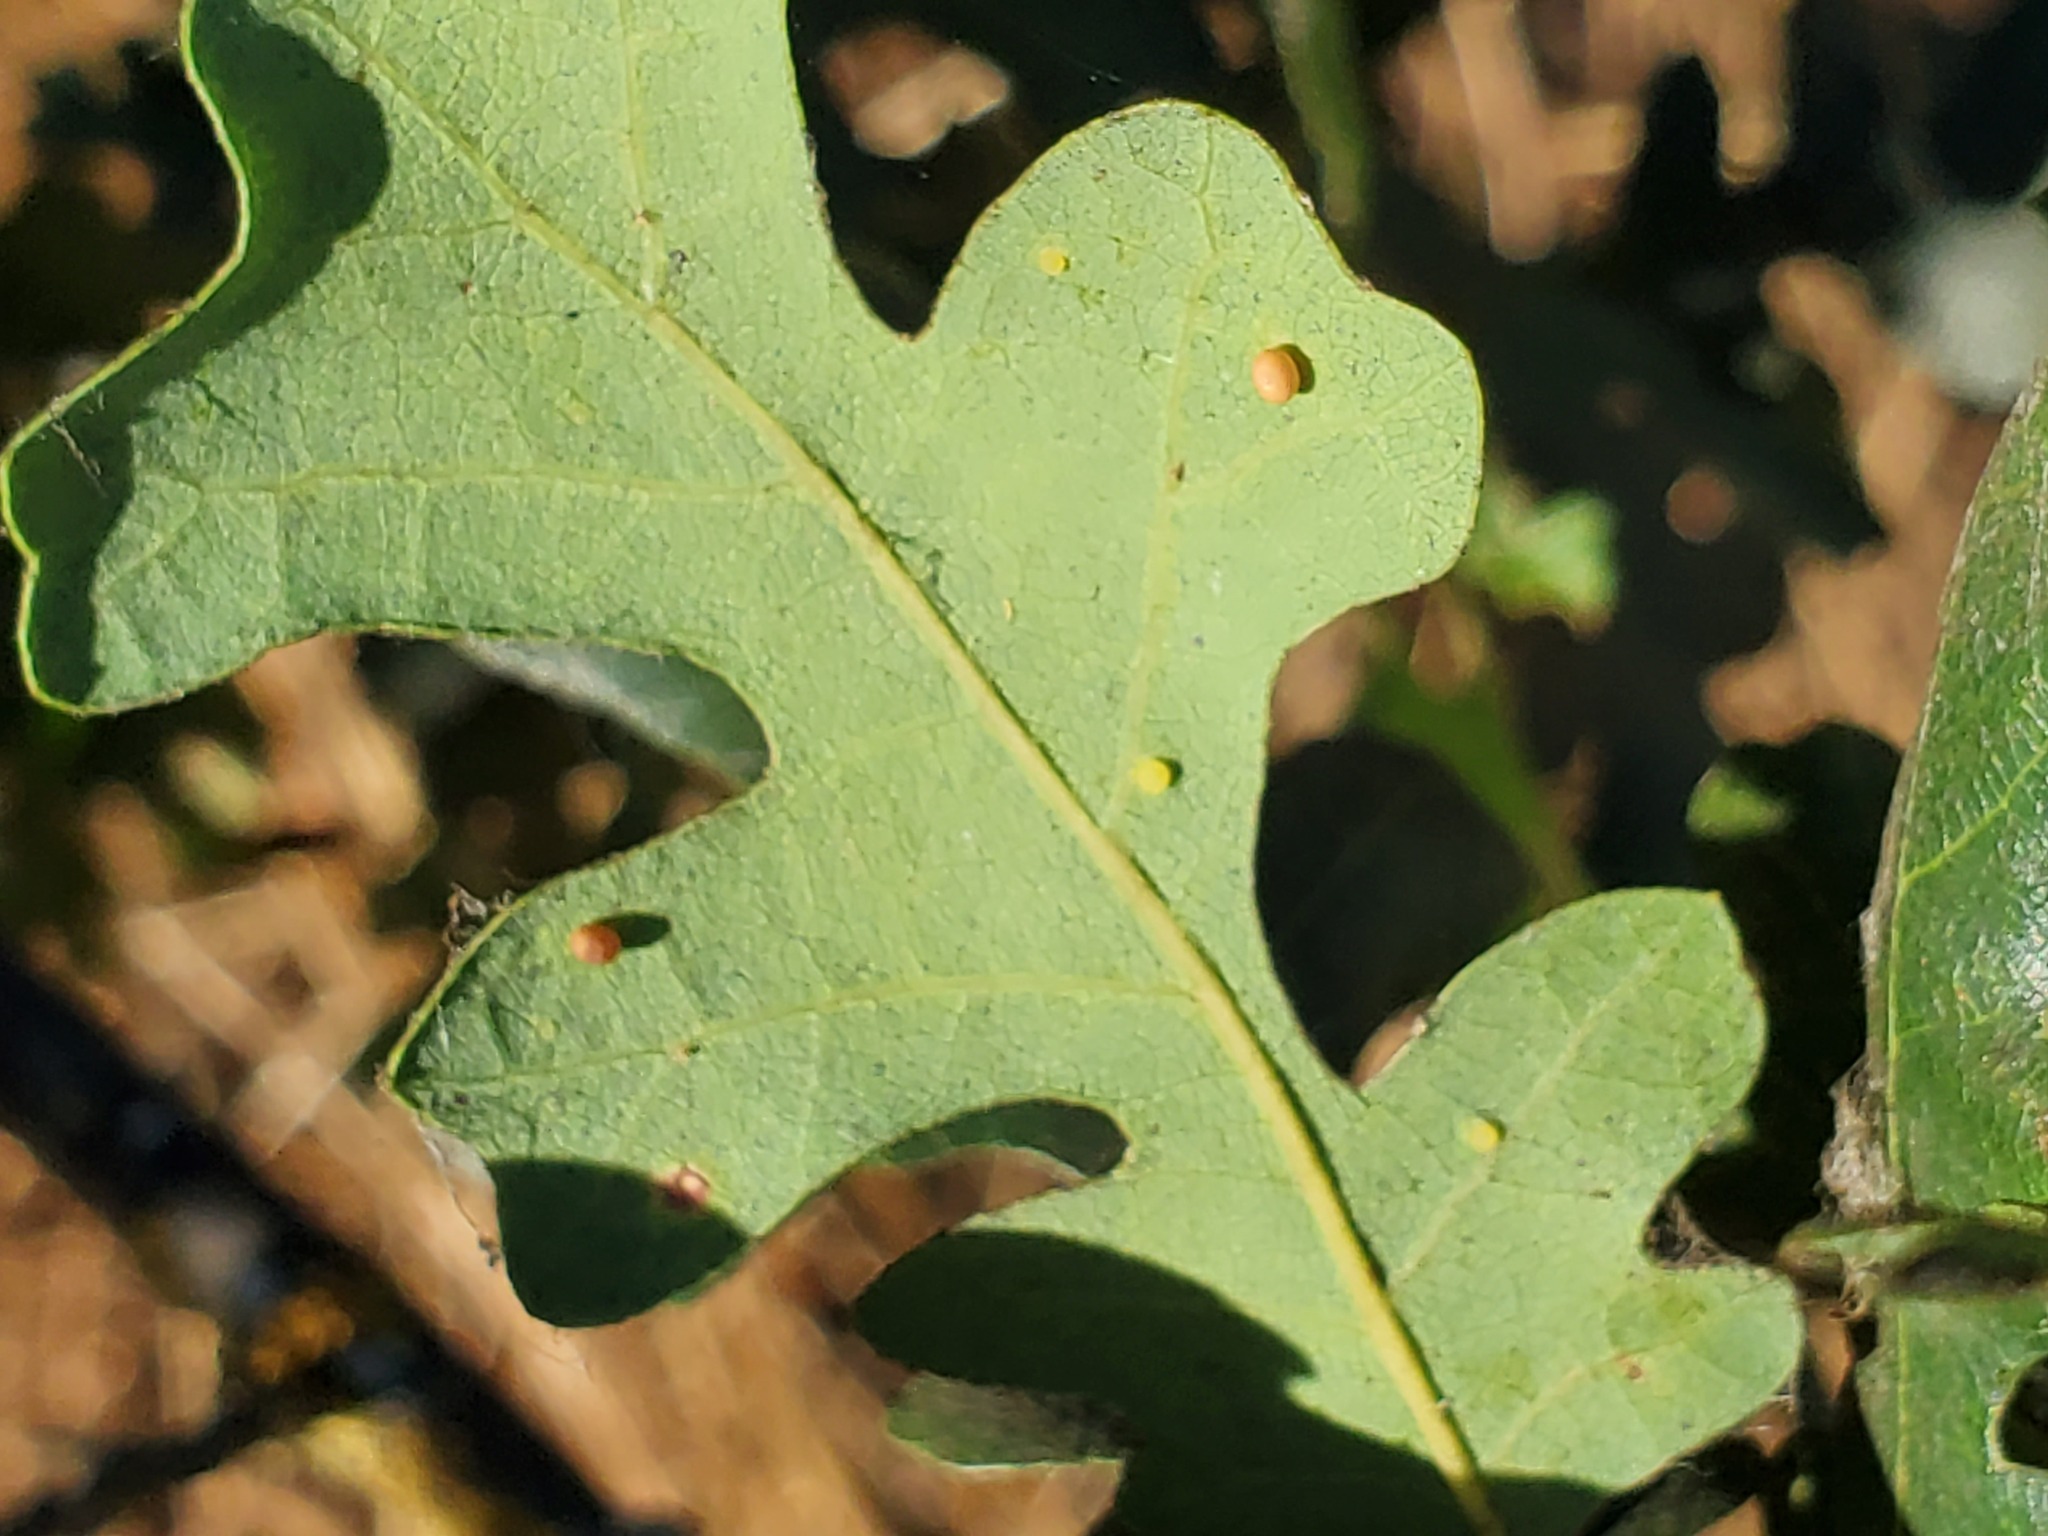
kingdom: Animalia
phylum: Arthropoda
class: Insecta
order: Hymenoptera
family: Cynipidae
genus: Neuroterus
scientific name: Neuroterus saltarius
